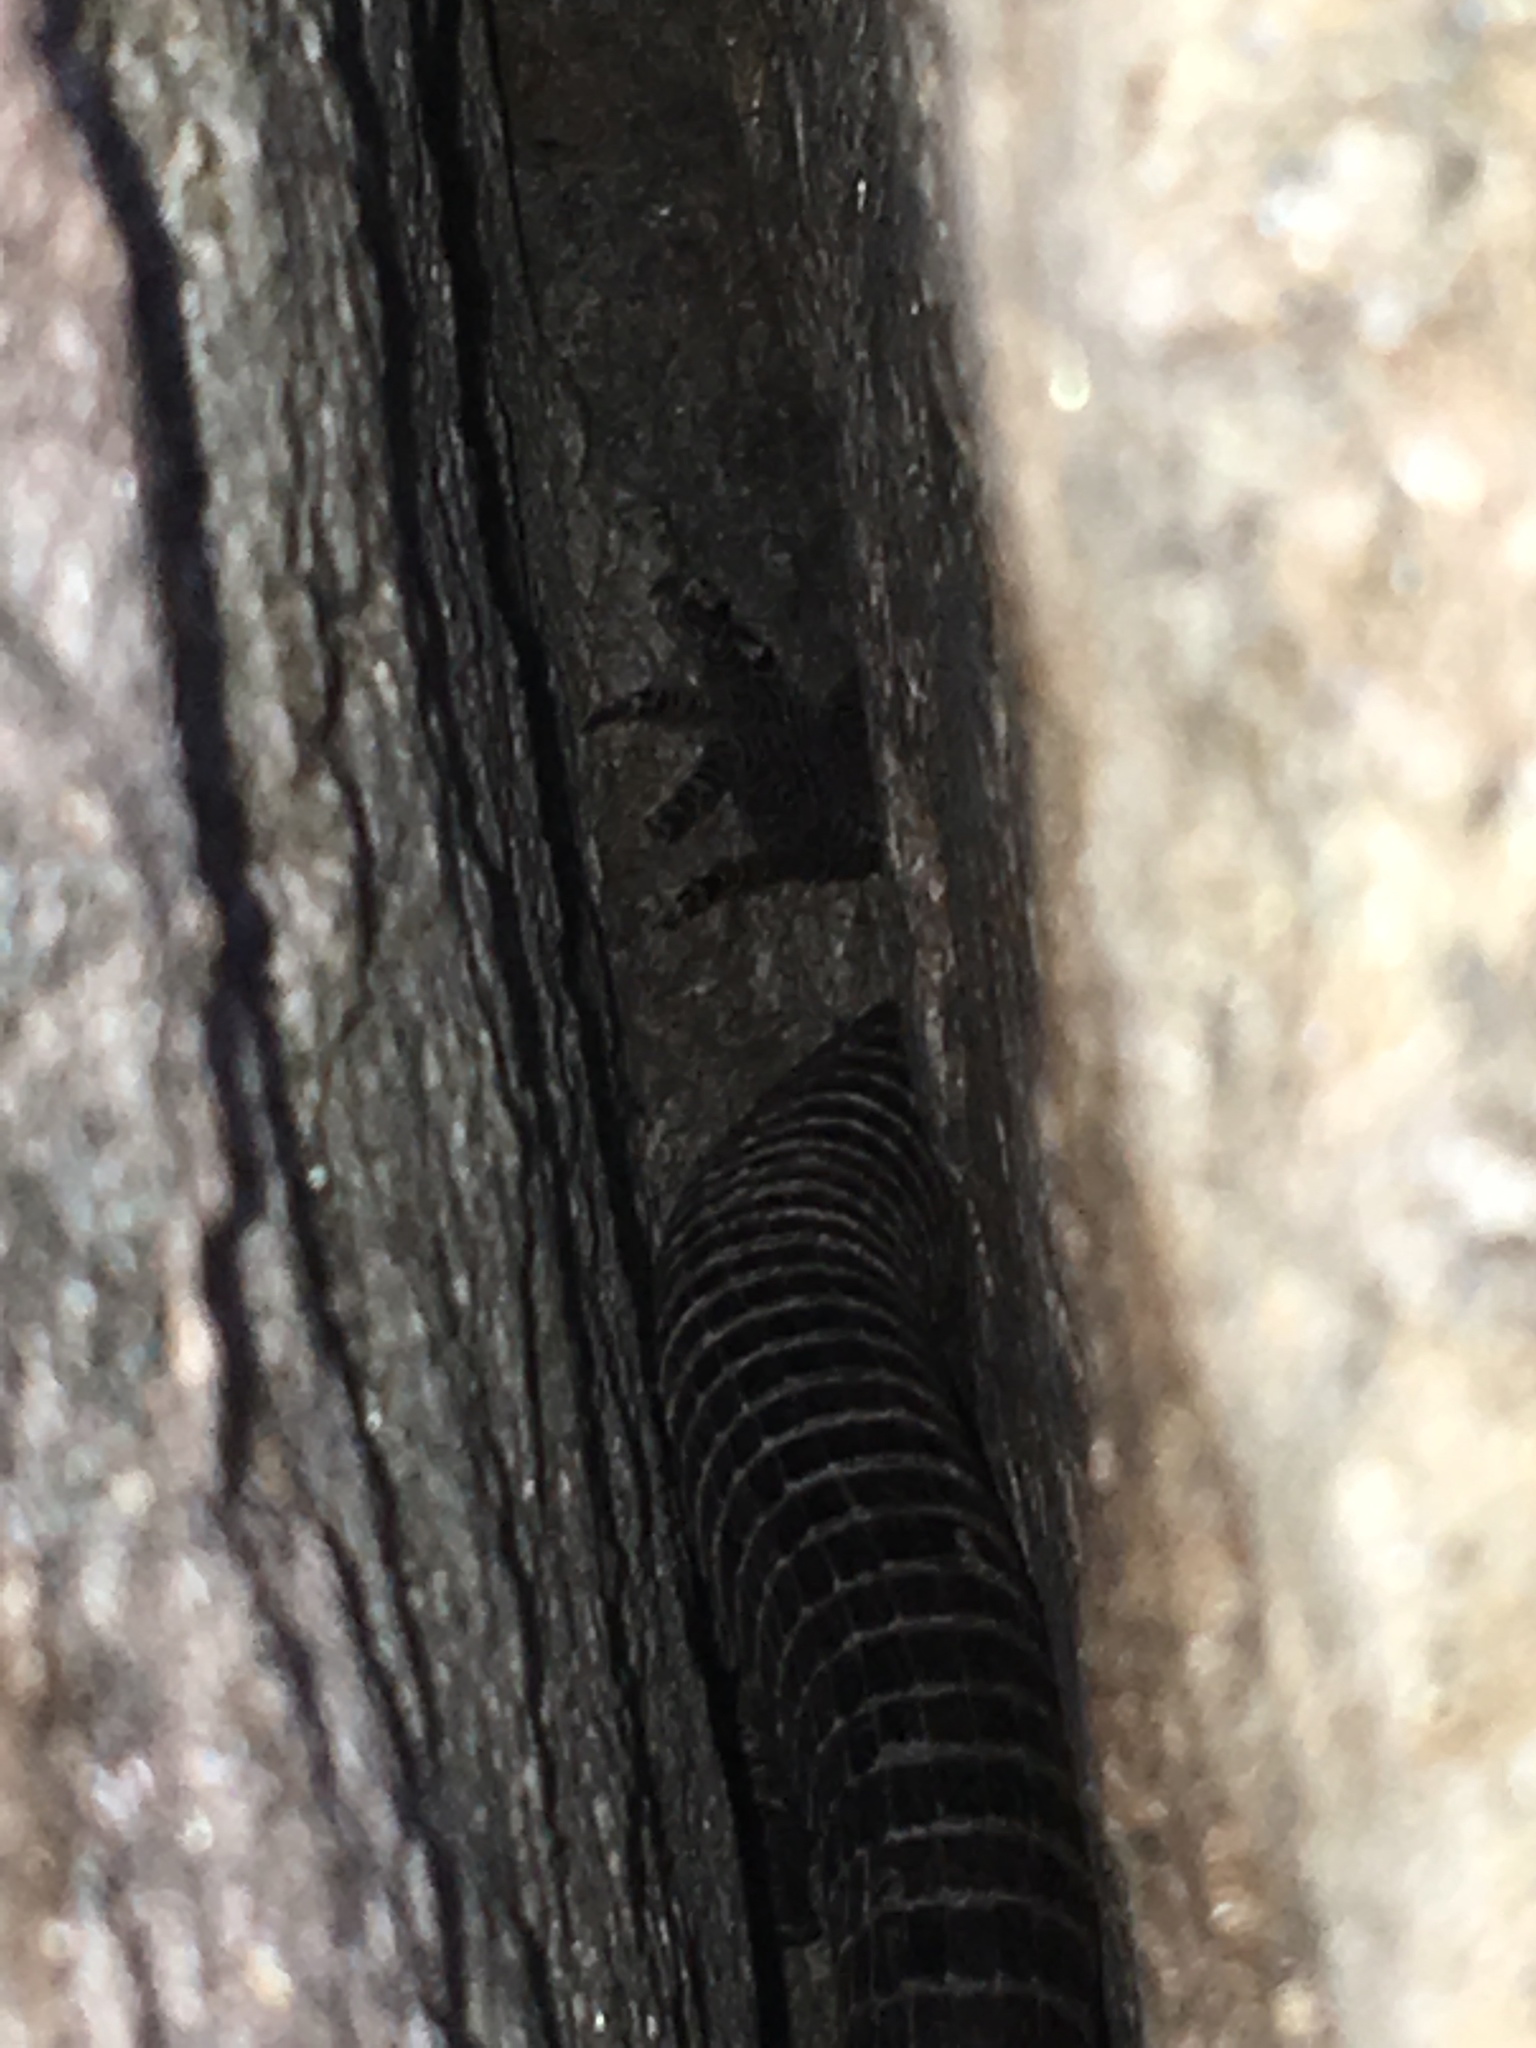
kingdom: Animalia
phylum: Chordata
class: Squamata
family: Gerrhosauridae
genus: Matobosaurus
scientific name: Matobosaurus validus
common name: Common giant plated lizard
